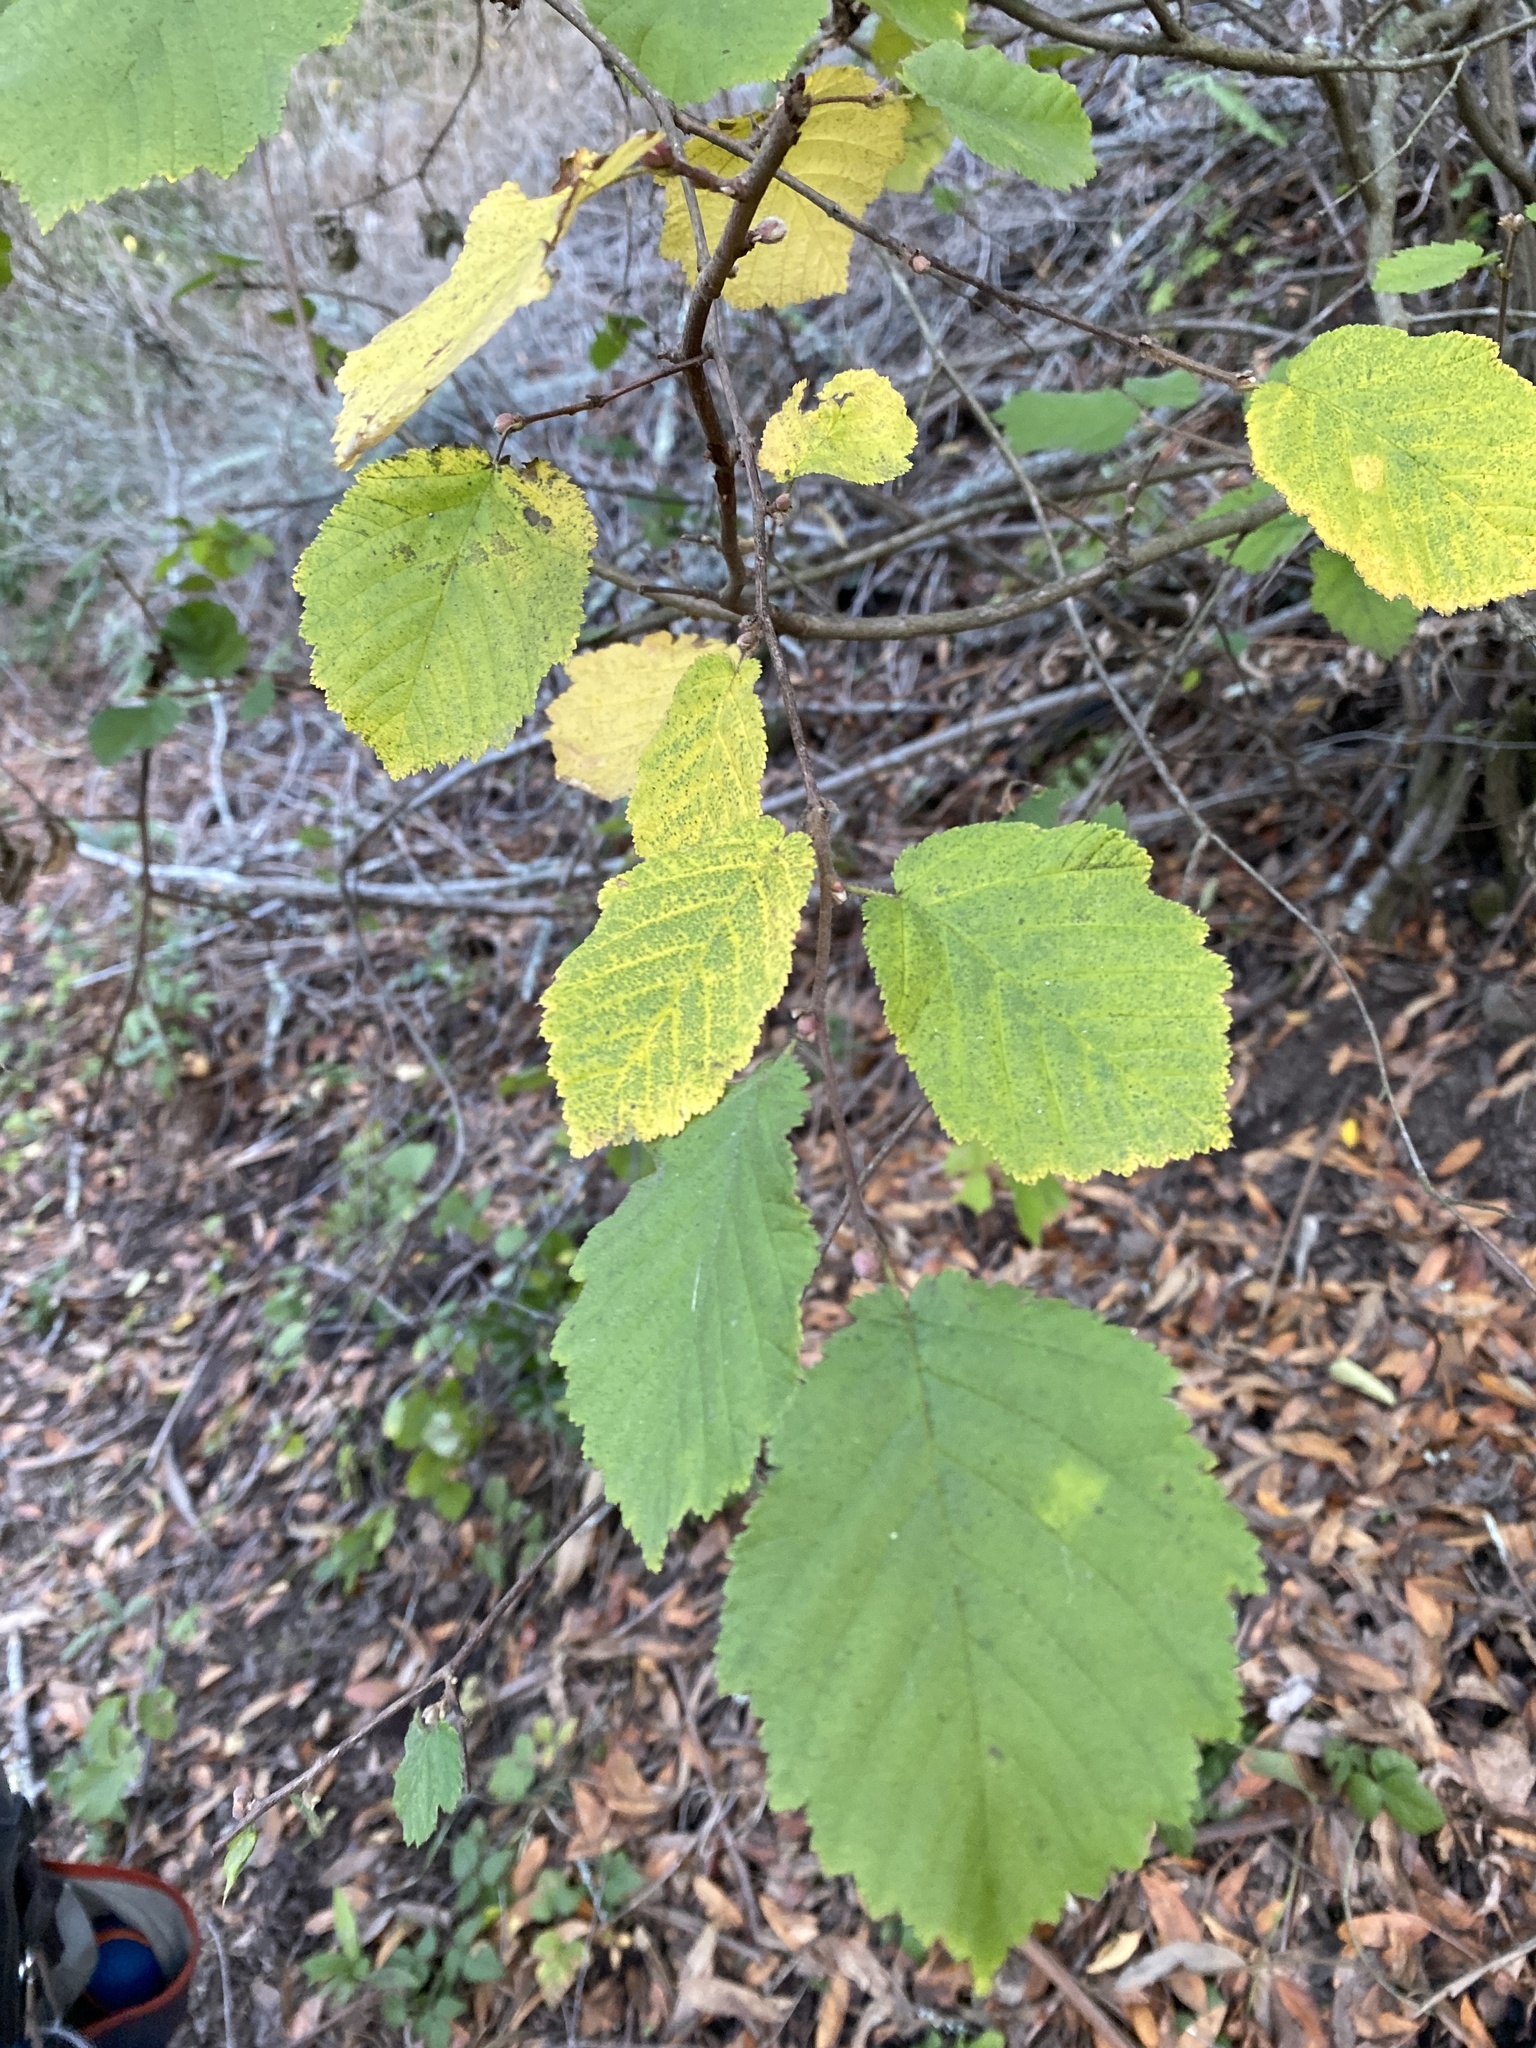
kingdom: Plantae
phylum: Tracheophyta
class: Magnoliopsida
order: Fagales
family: Betulaceae
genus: Corylus
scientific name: Corylus cornuta
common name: Beaked hazel
